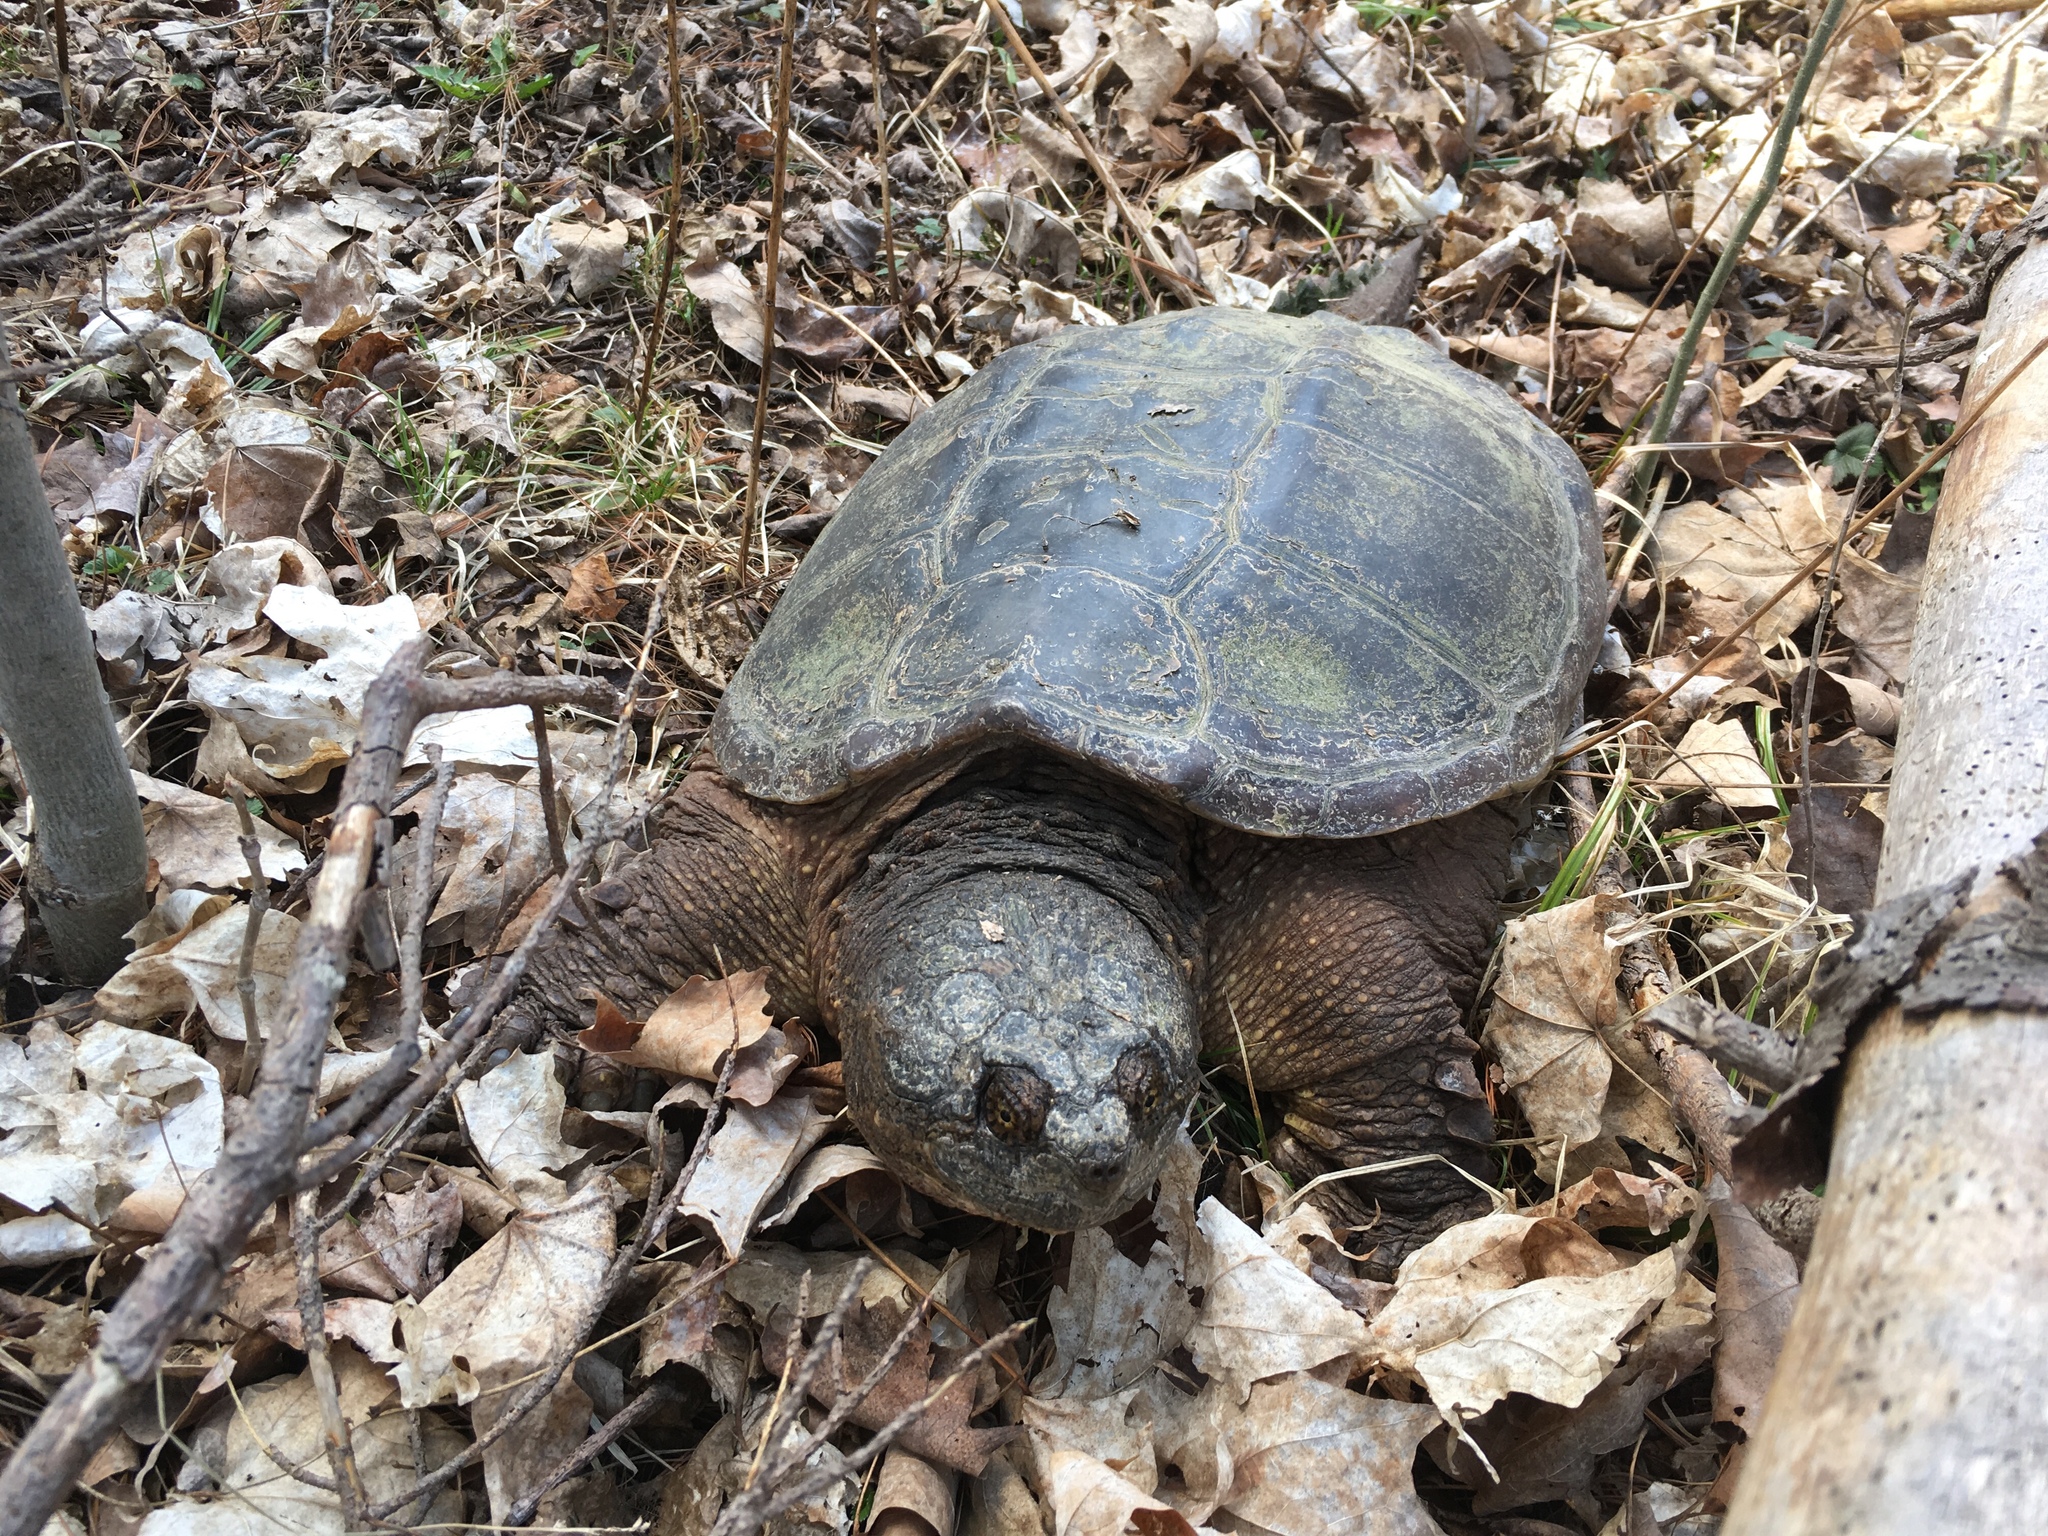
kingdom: Animalia
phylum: Chordata
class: Testudines
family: Chelydridae
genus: Chelydra
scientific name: Chelydra serpentina
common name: Common snapping turtle
